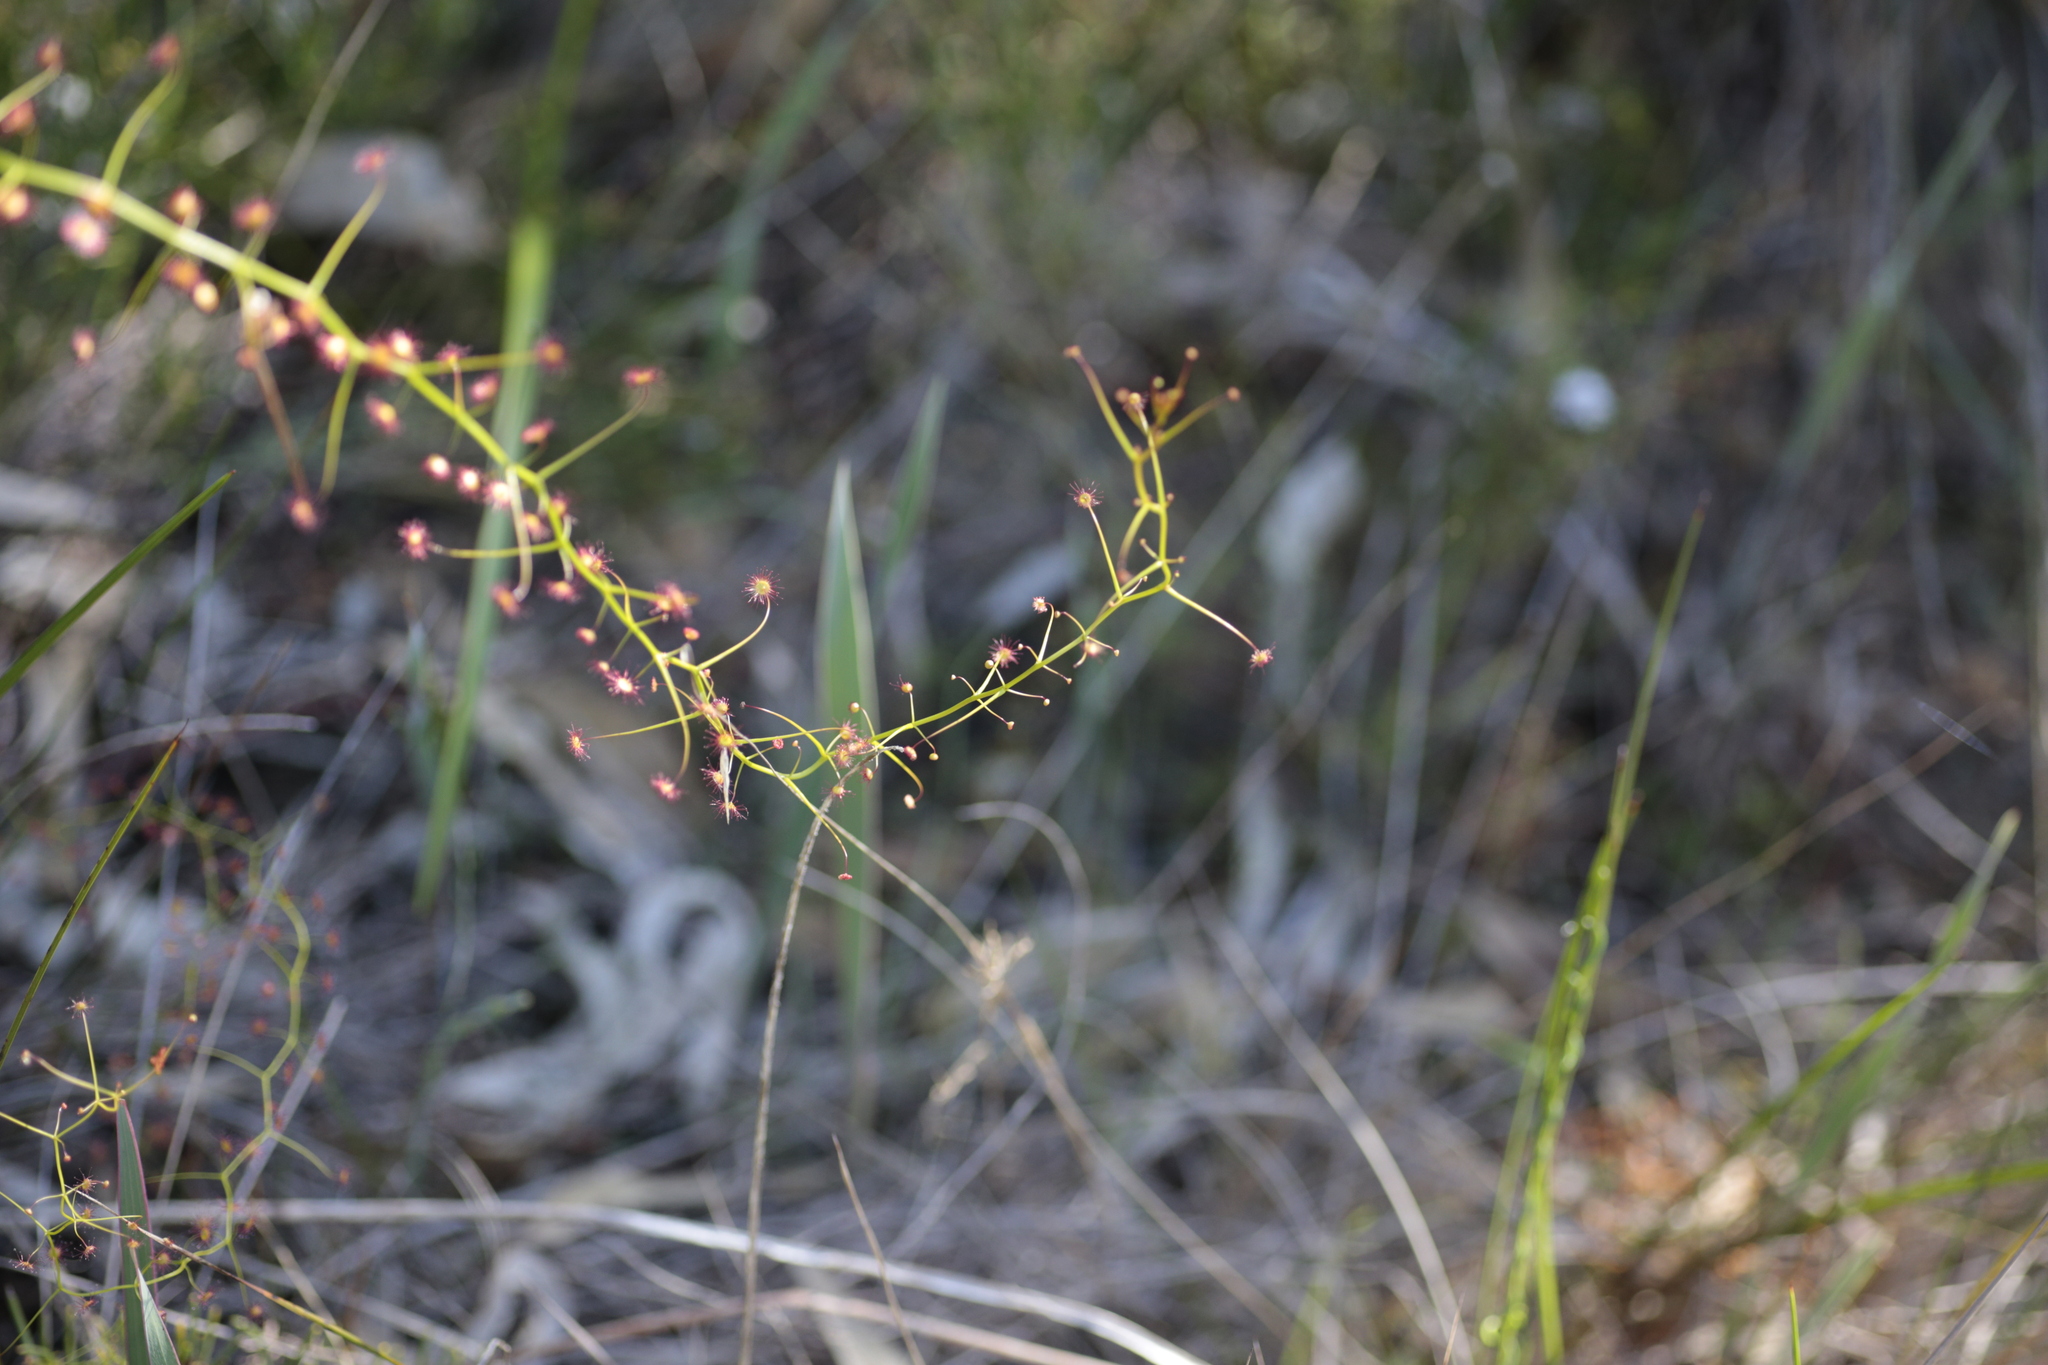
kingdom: Plantae
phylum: Tracheophyta
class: Magnoliopsida
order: Caryophyllales
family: Droseraceae
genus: Drosera
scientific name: Drosera pallida
